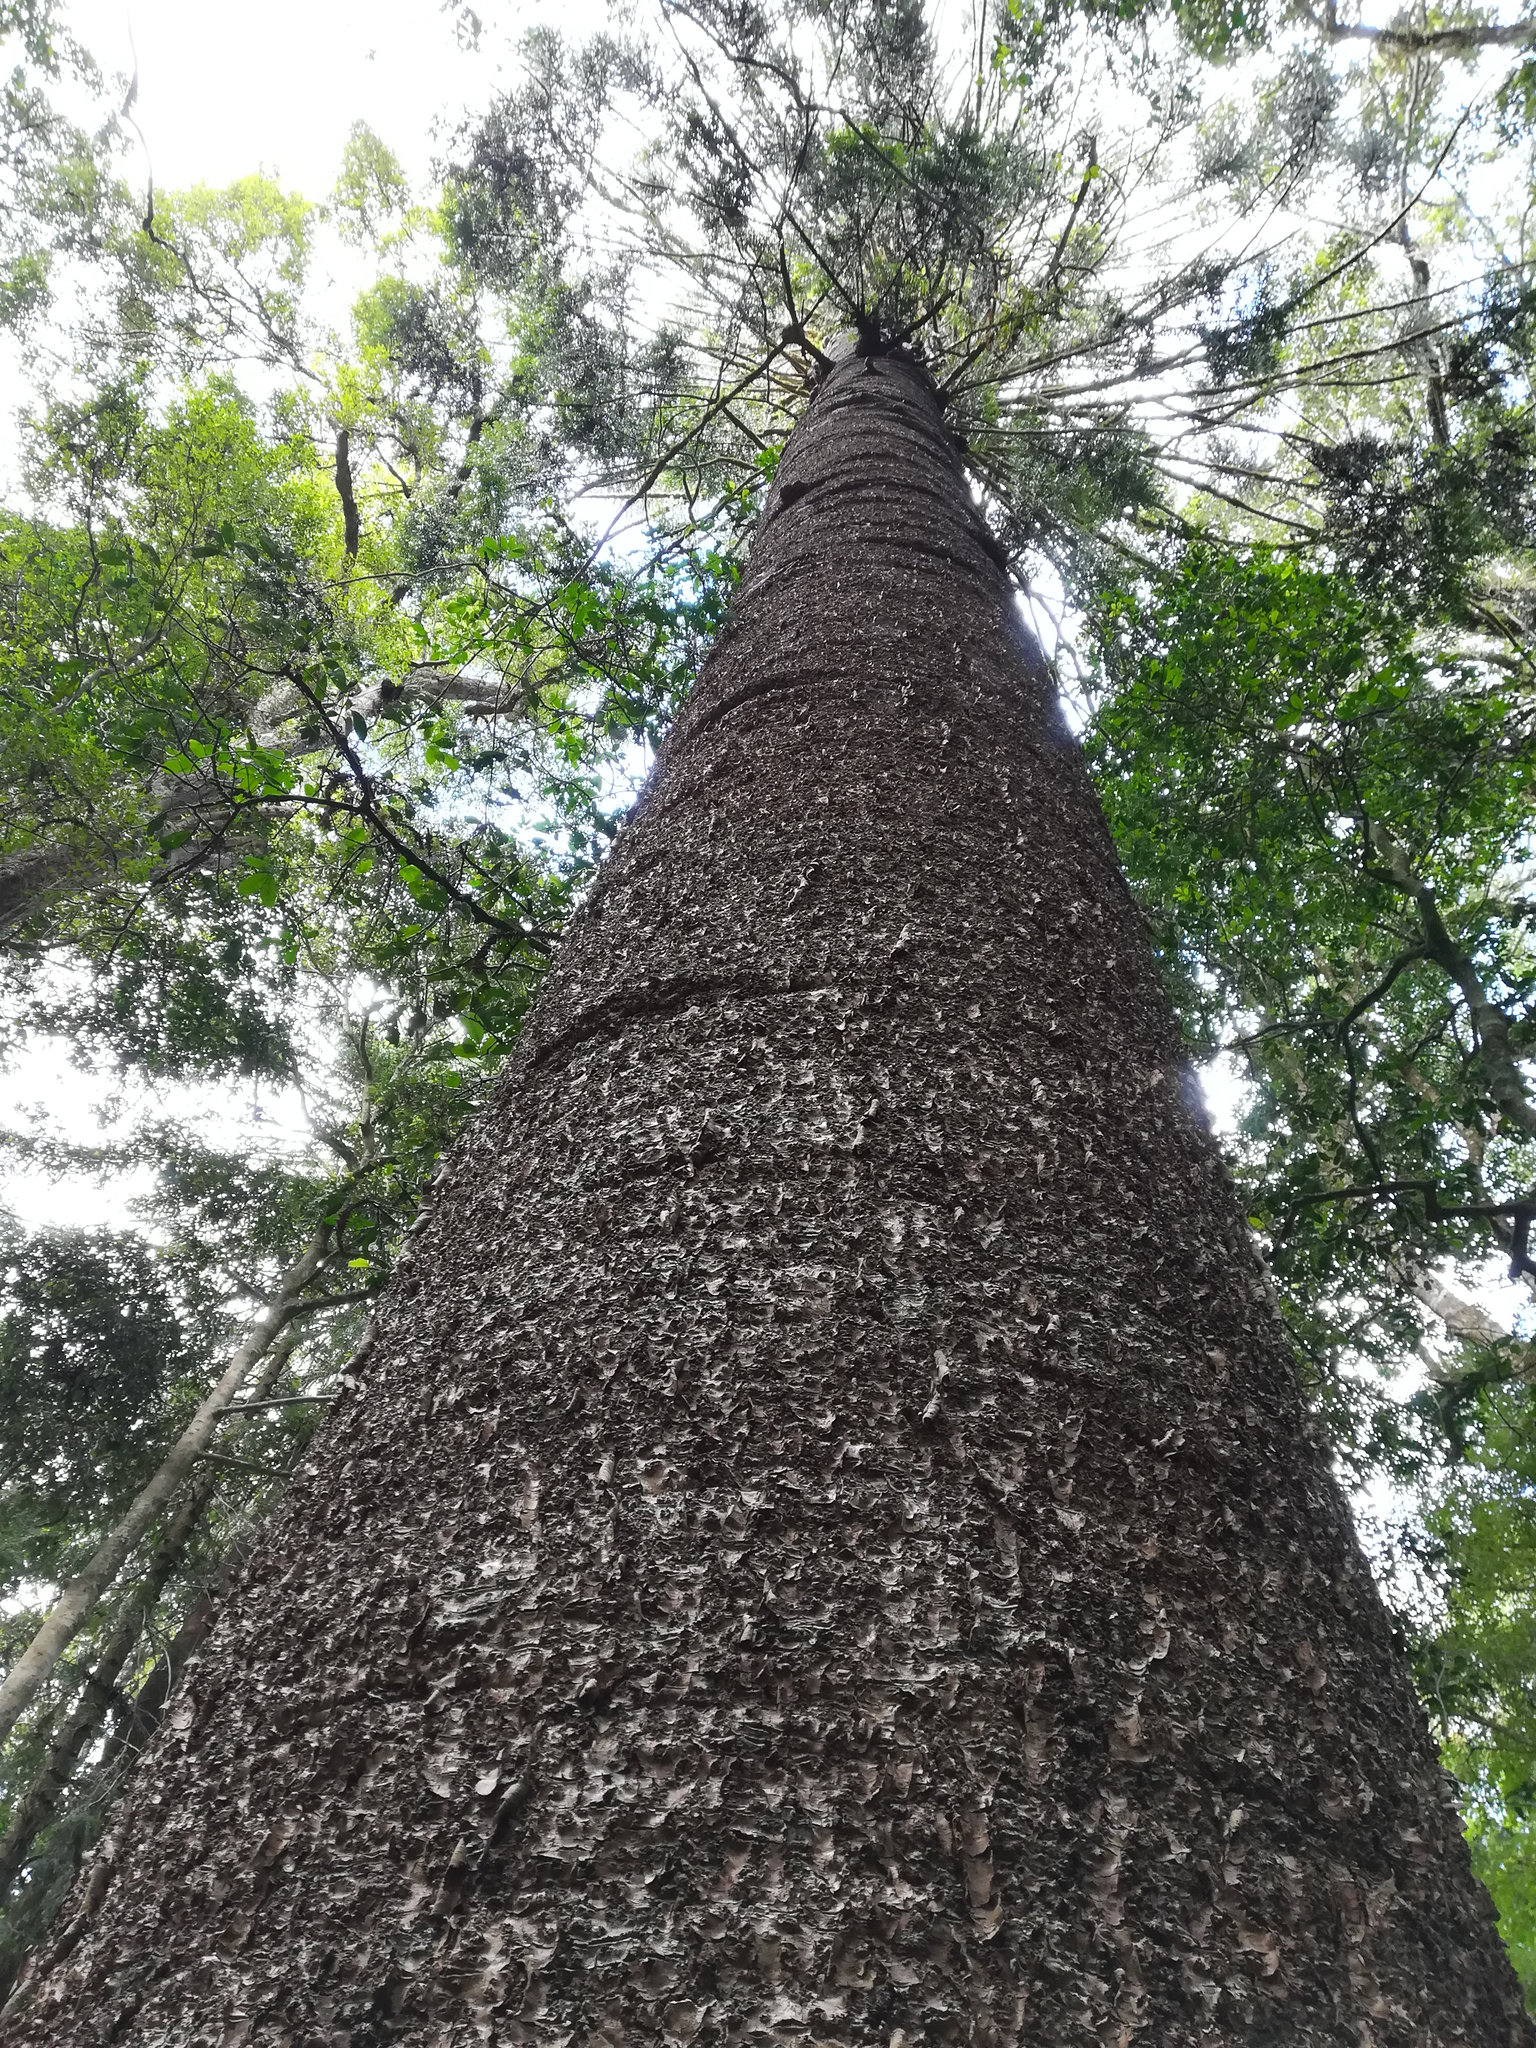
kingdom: Plantae
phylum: Tracheophyta
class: Pinopsida
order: Pinales
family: Araucariaceae
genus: Araucaria
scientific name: Araucaria bidwillii
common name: Moreton-bay-pine
